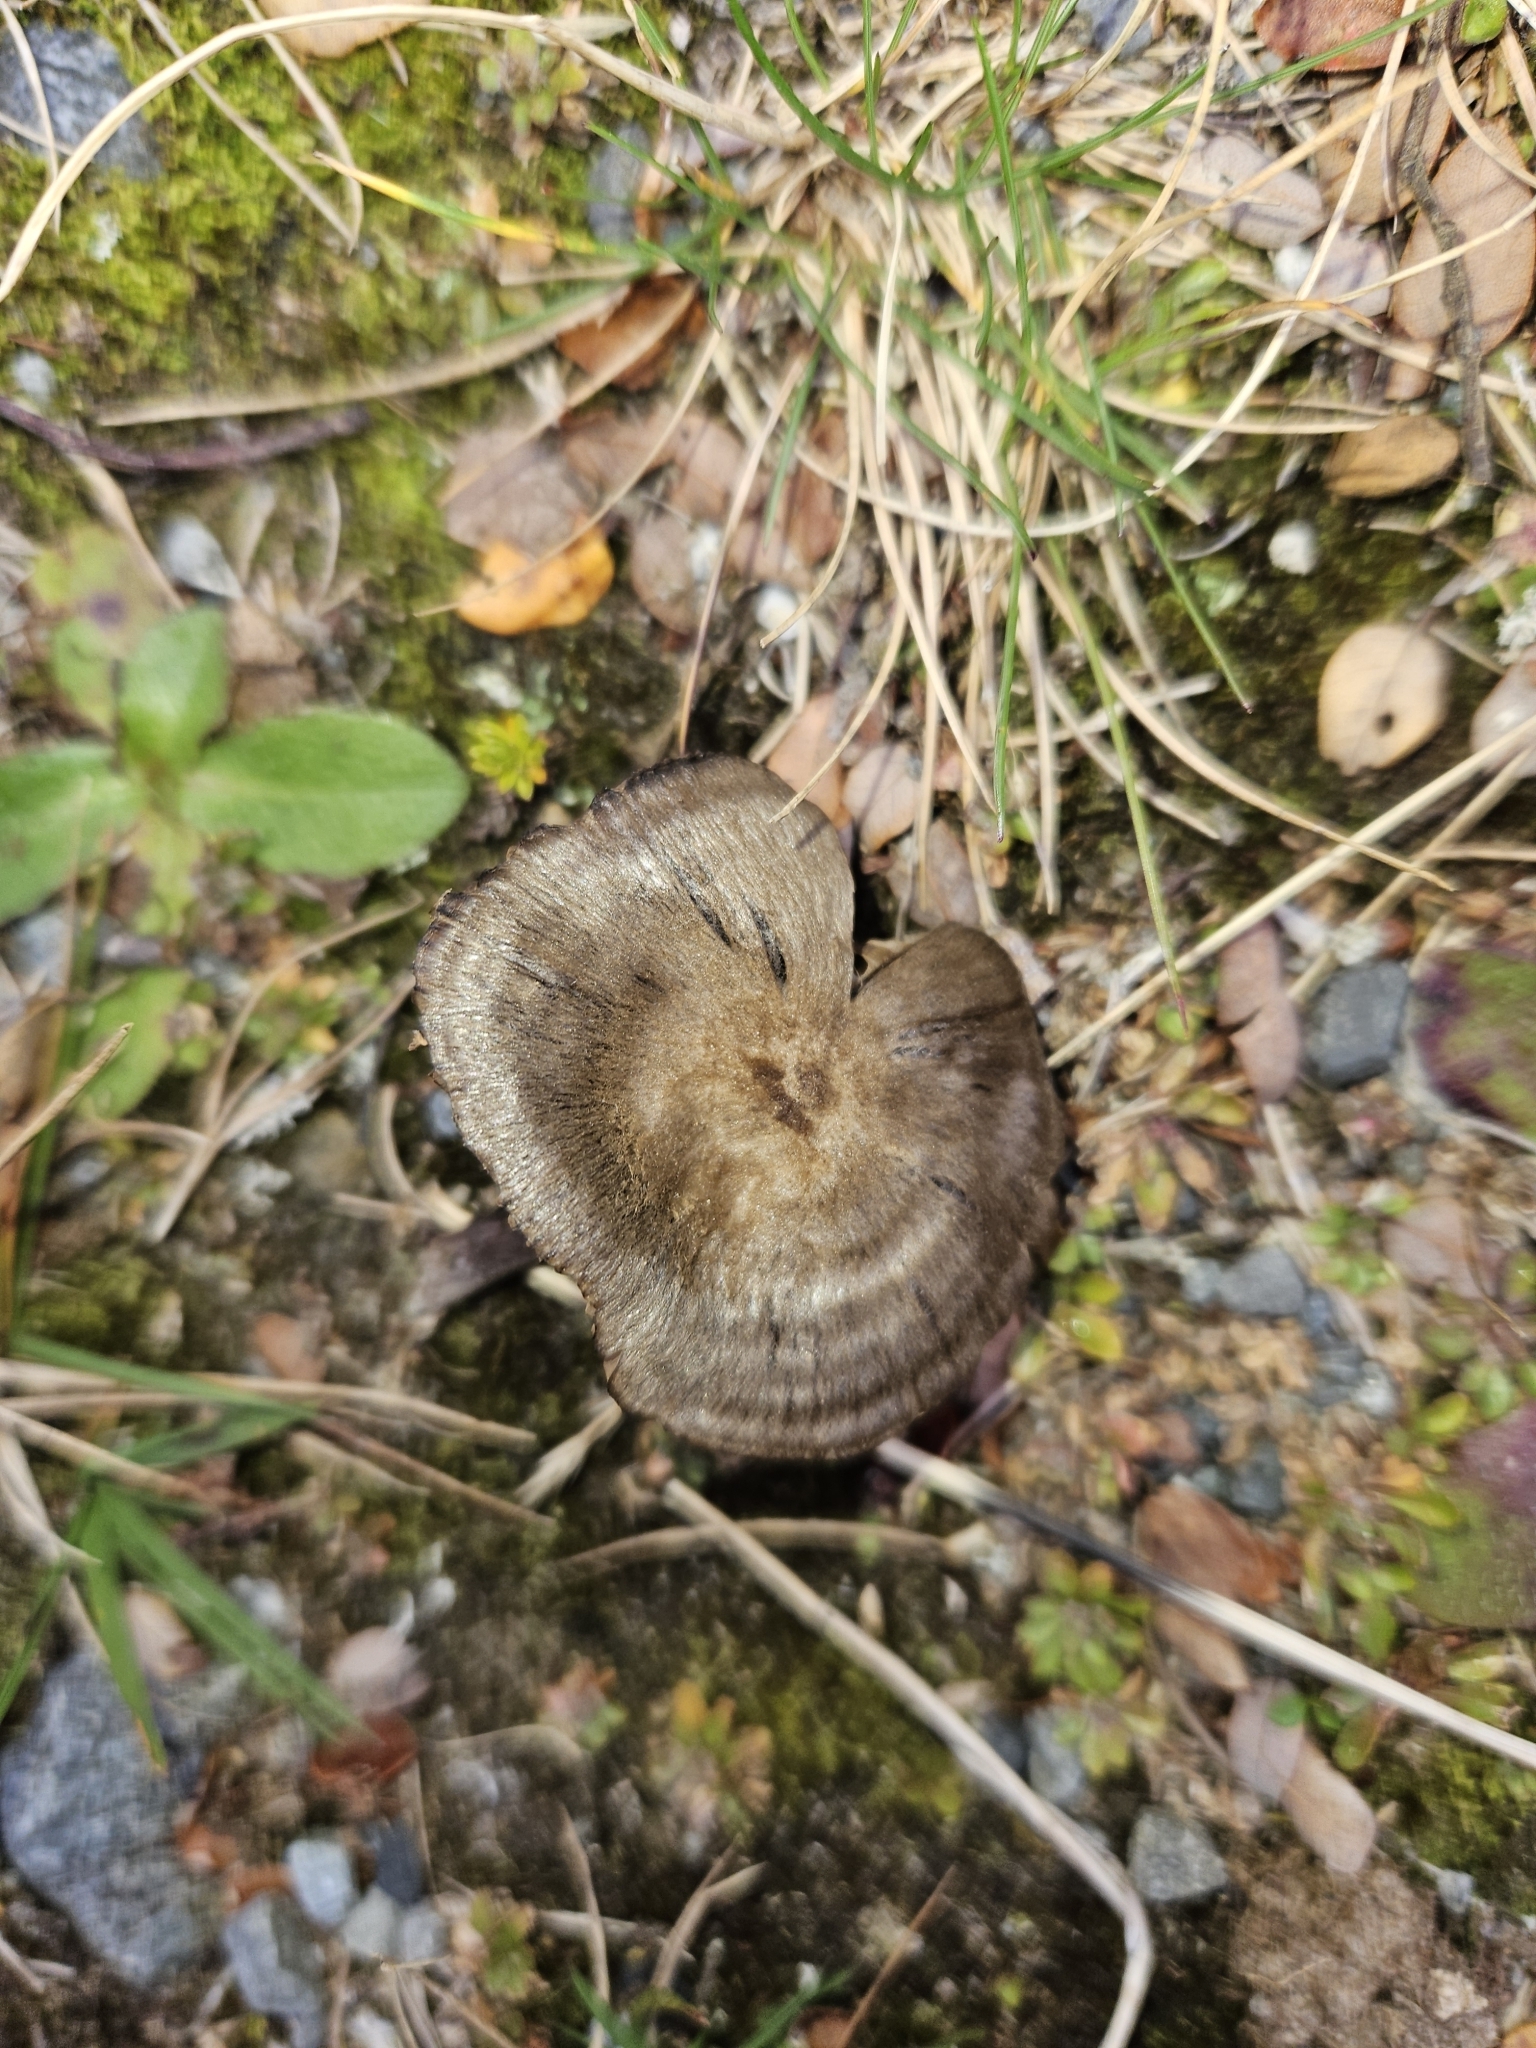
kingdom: Fungi
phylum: Basidiomycota
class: Agaricomycetes
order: Agaricales
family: Entolomataceae
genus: Entoloma
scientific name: Entoloma perzonatum
